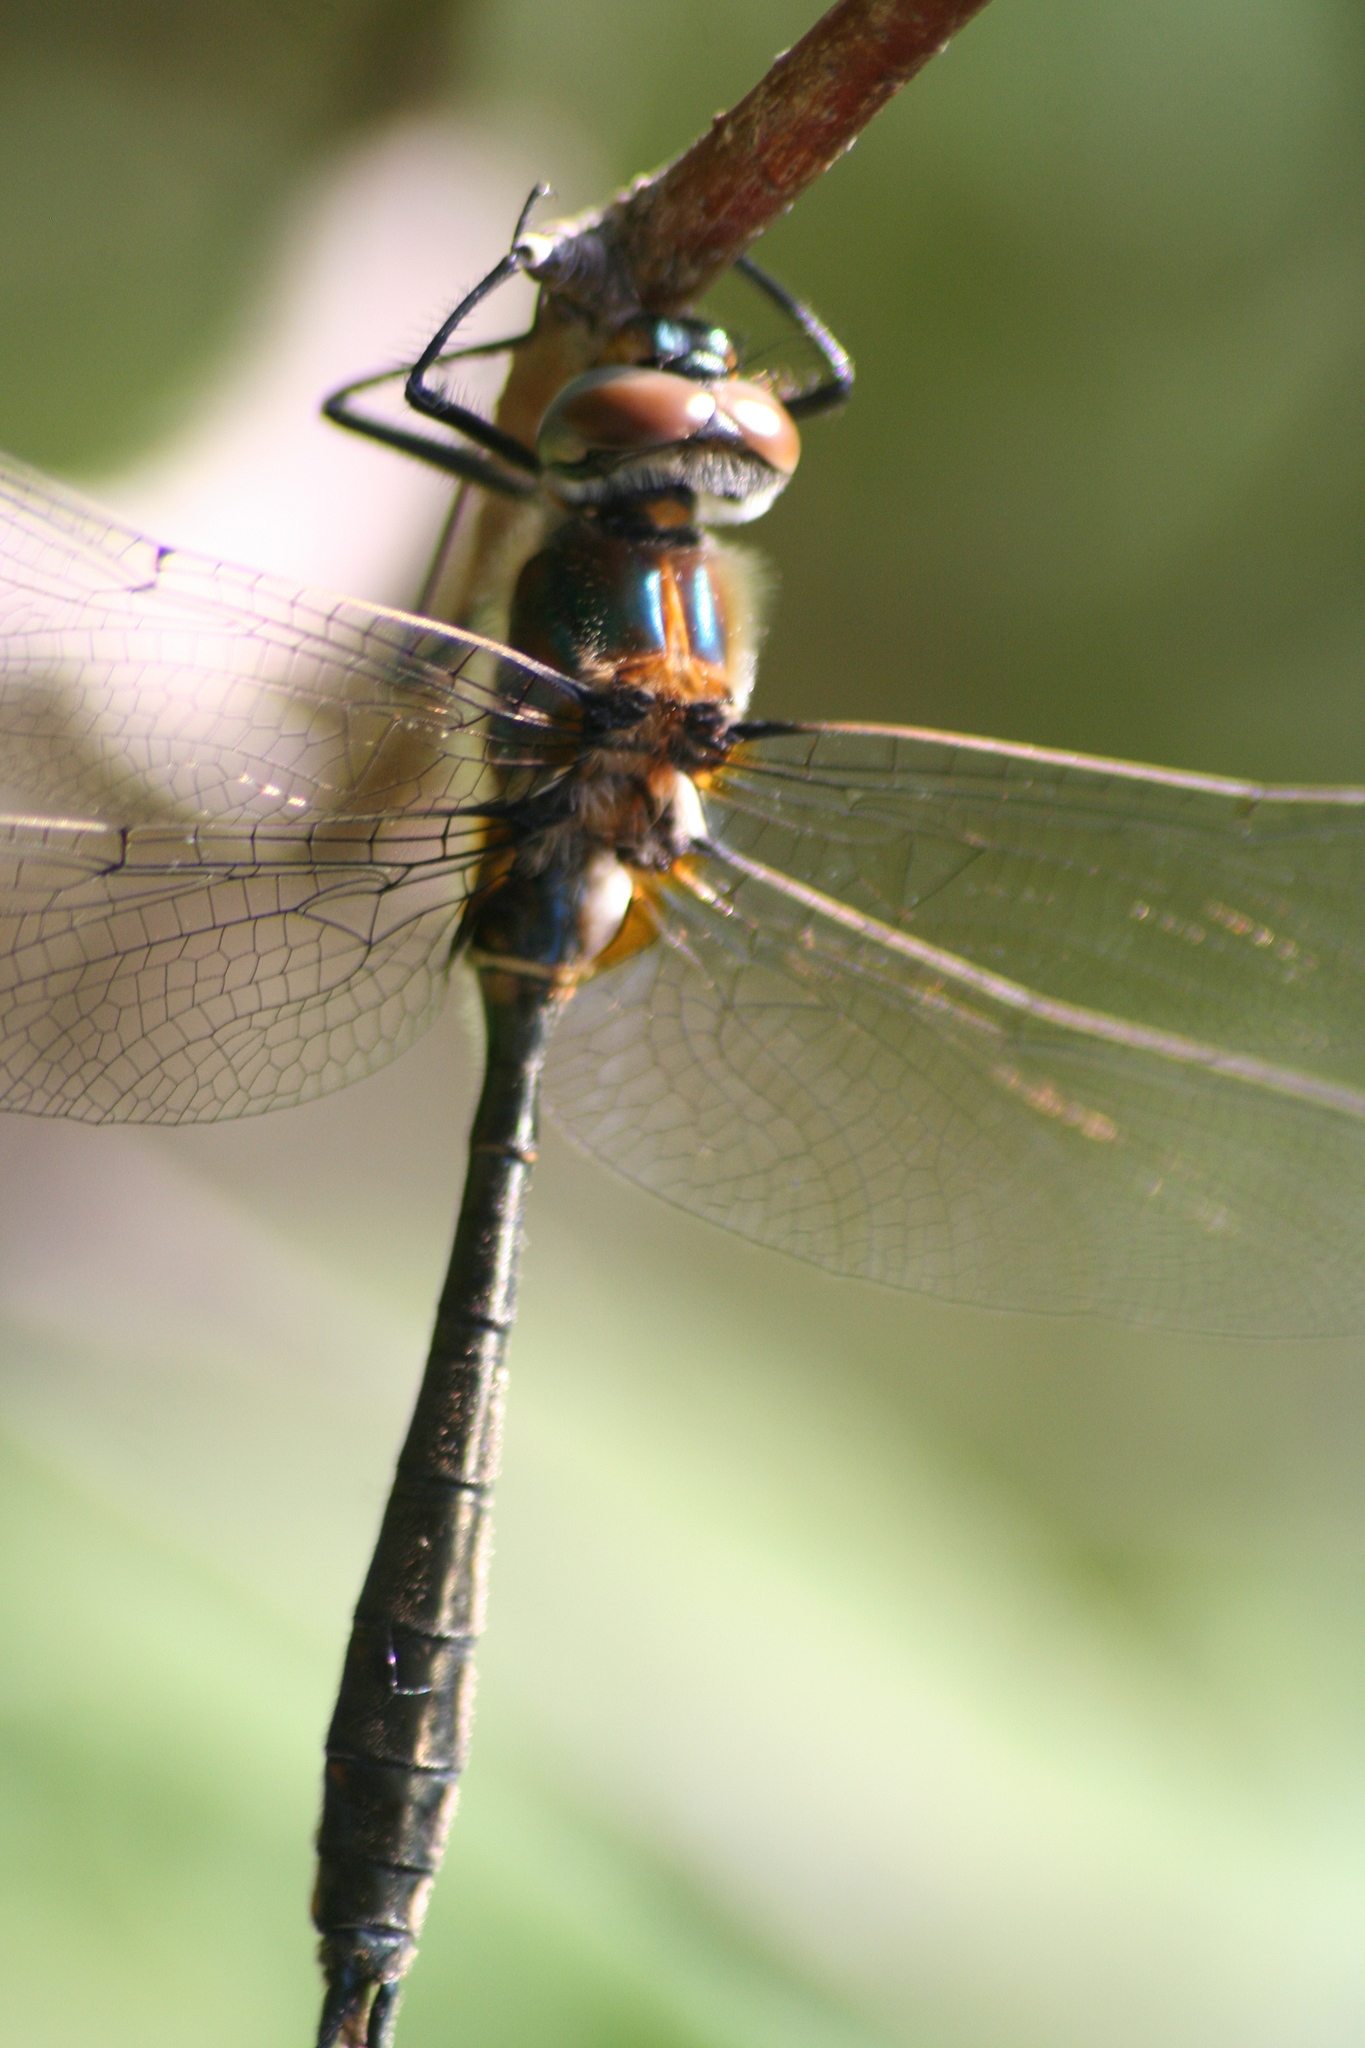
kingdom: Animalia
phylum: Arthropoda
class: Insecta
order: Odonata
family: Corduliidae
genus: Cordulia
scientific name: Cordulia shurtleffii
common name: American emerald
